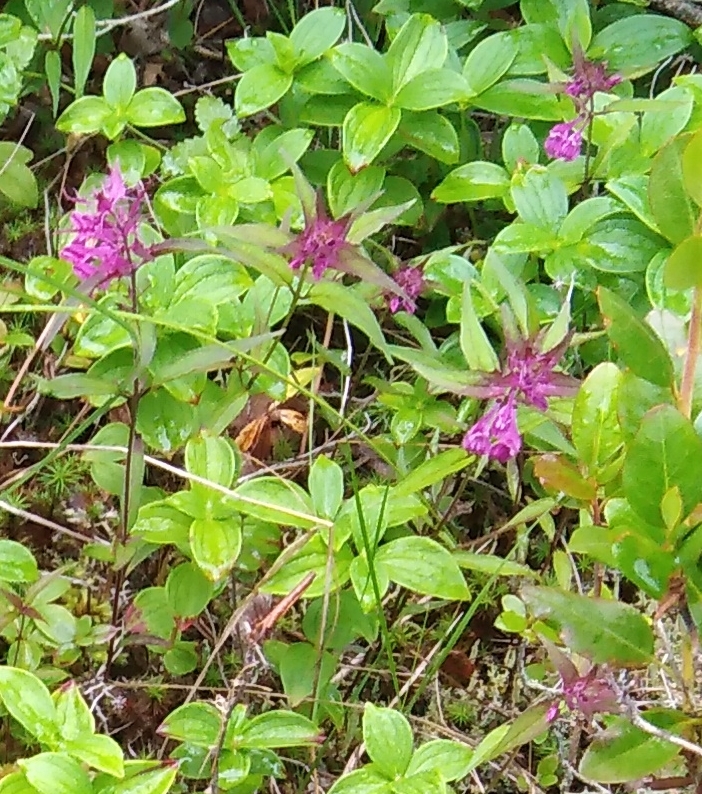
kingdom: Plantae
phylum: Tracheophyta
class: Magnoliopsida
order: Lamiales
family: Orobanchaceae
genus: Melampyrum
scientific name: Melampyrum setaceum
